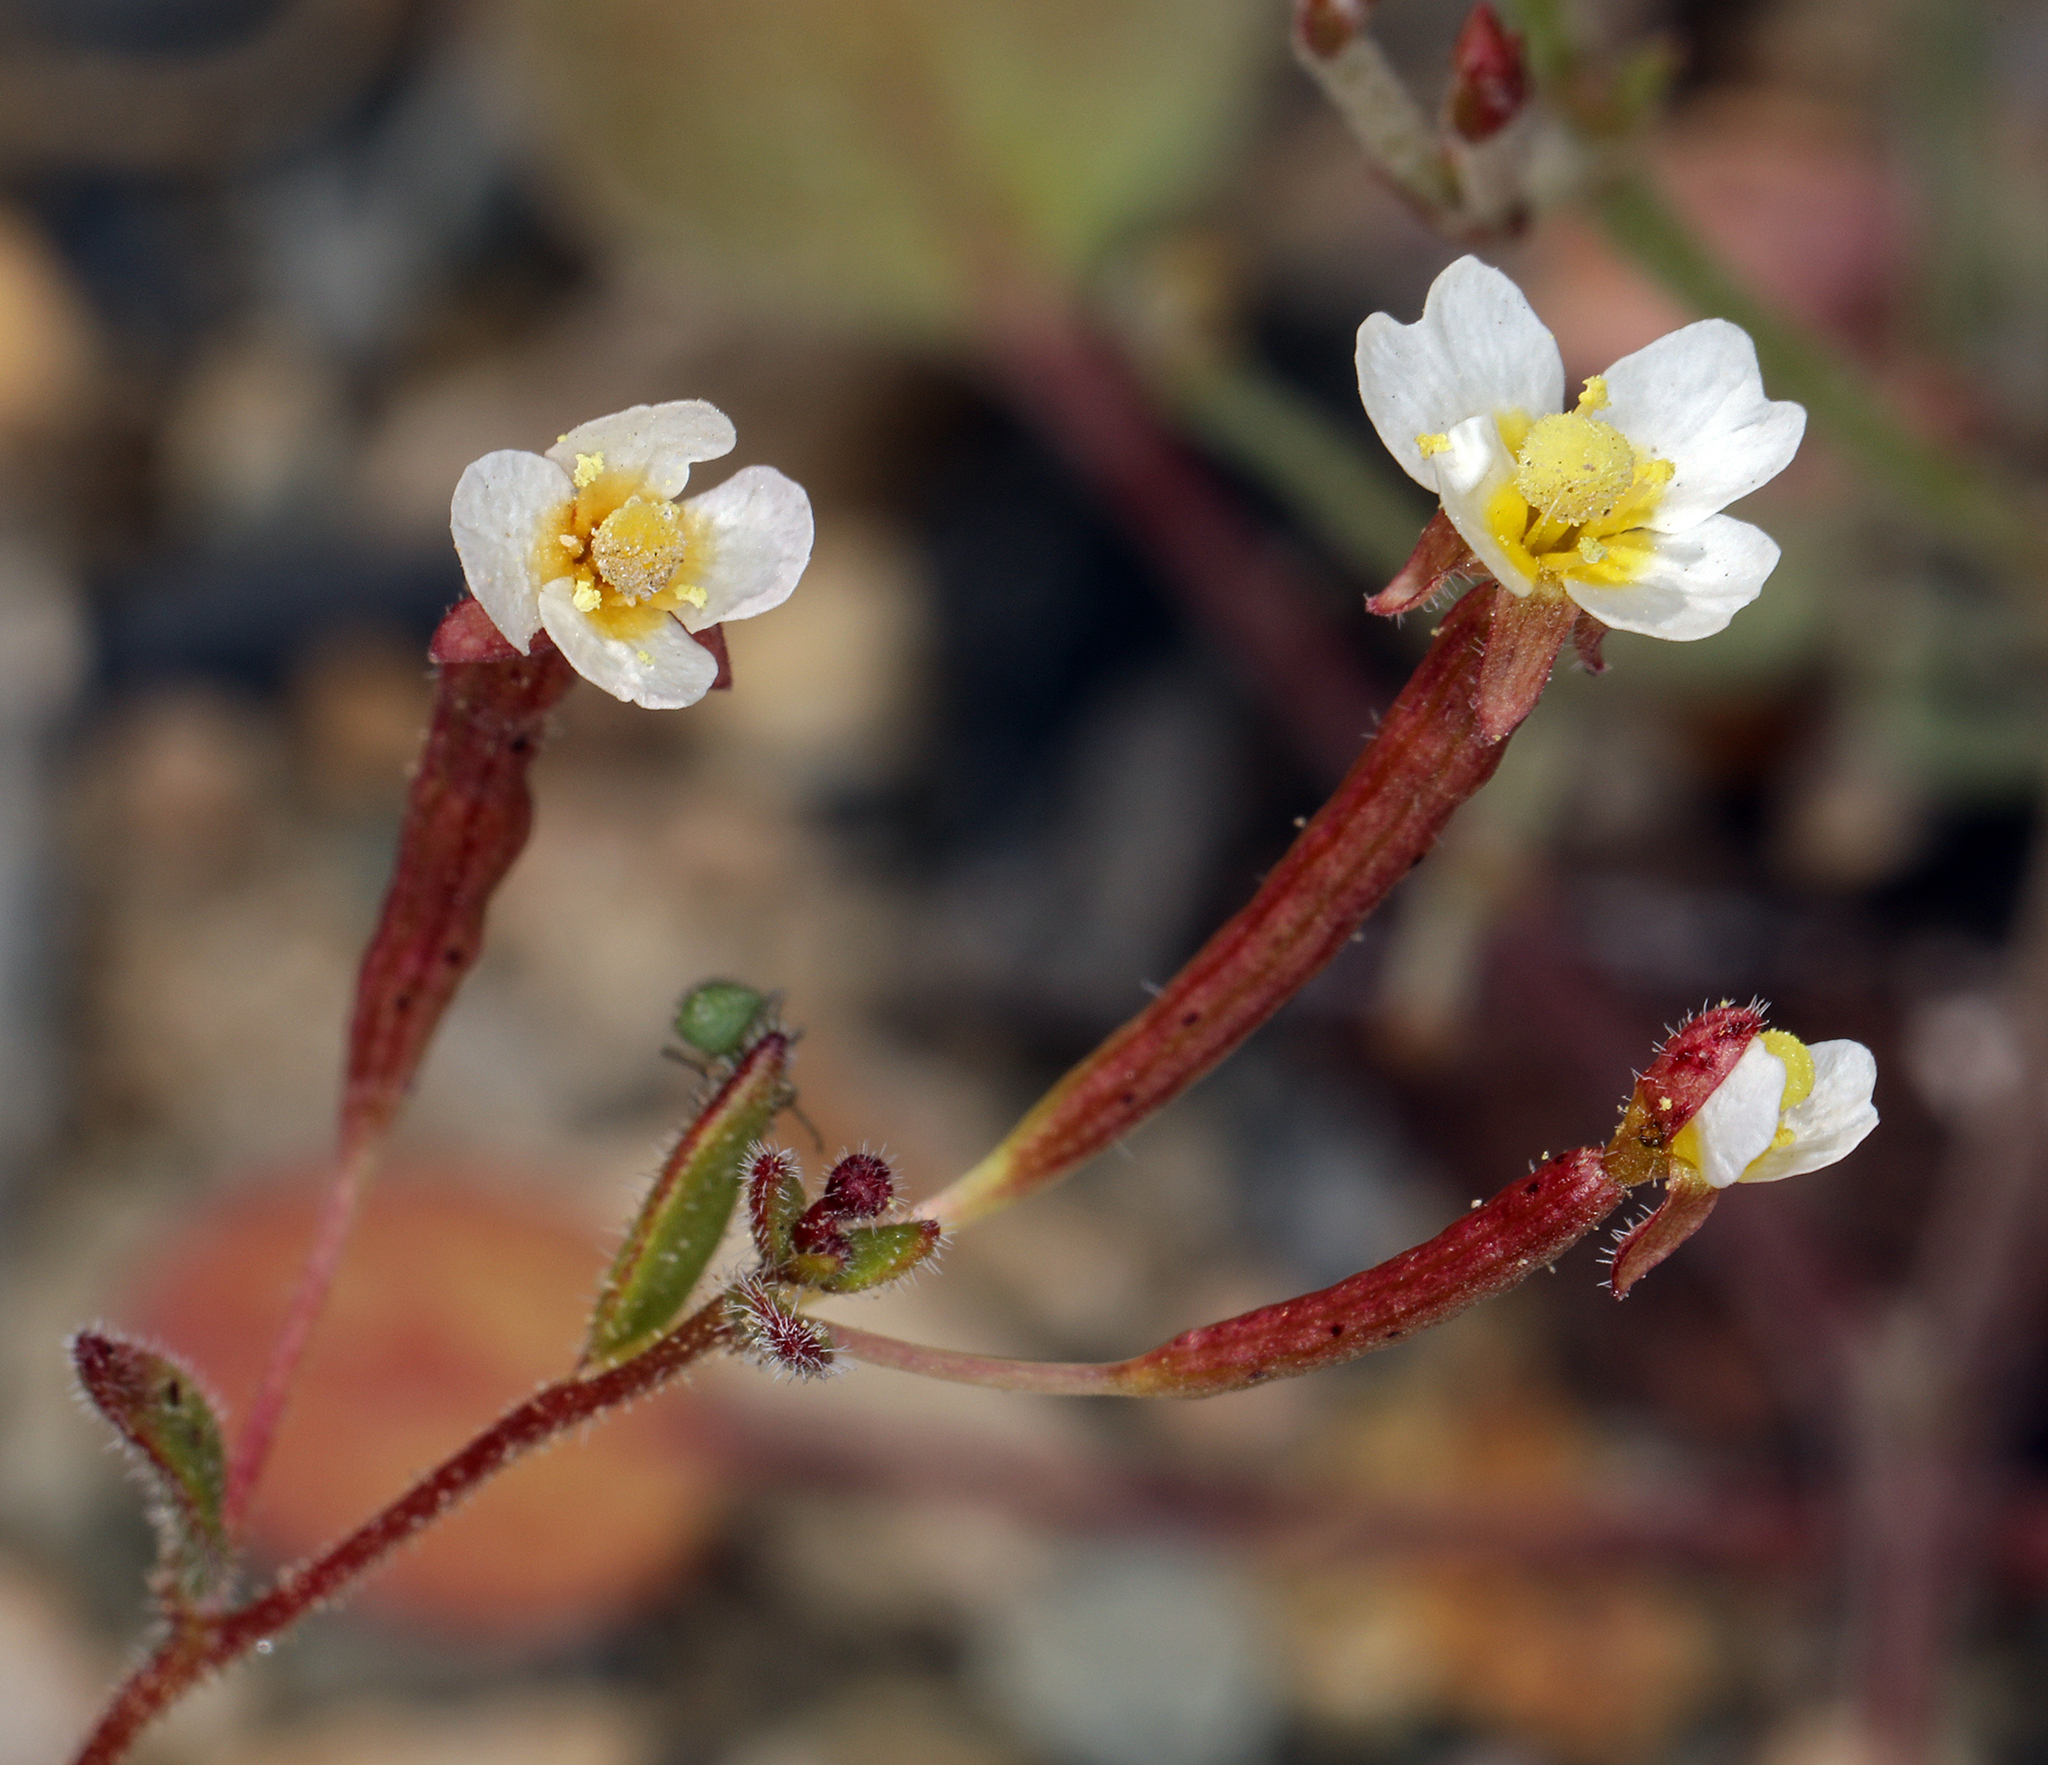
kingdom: Plantae
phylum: Tracheophyta
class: Magnoliopsida
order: Myrtales
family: Onagraceae
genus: Chylismiella
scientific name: Chylismiella pterosperma
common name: Wingfruit suncup
